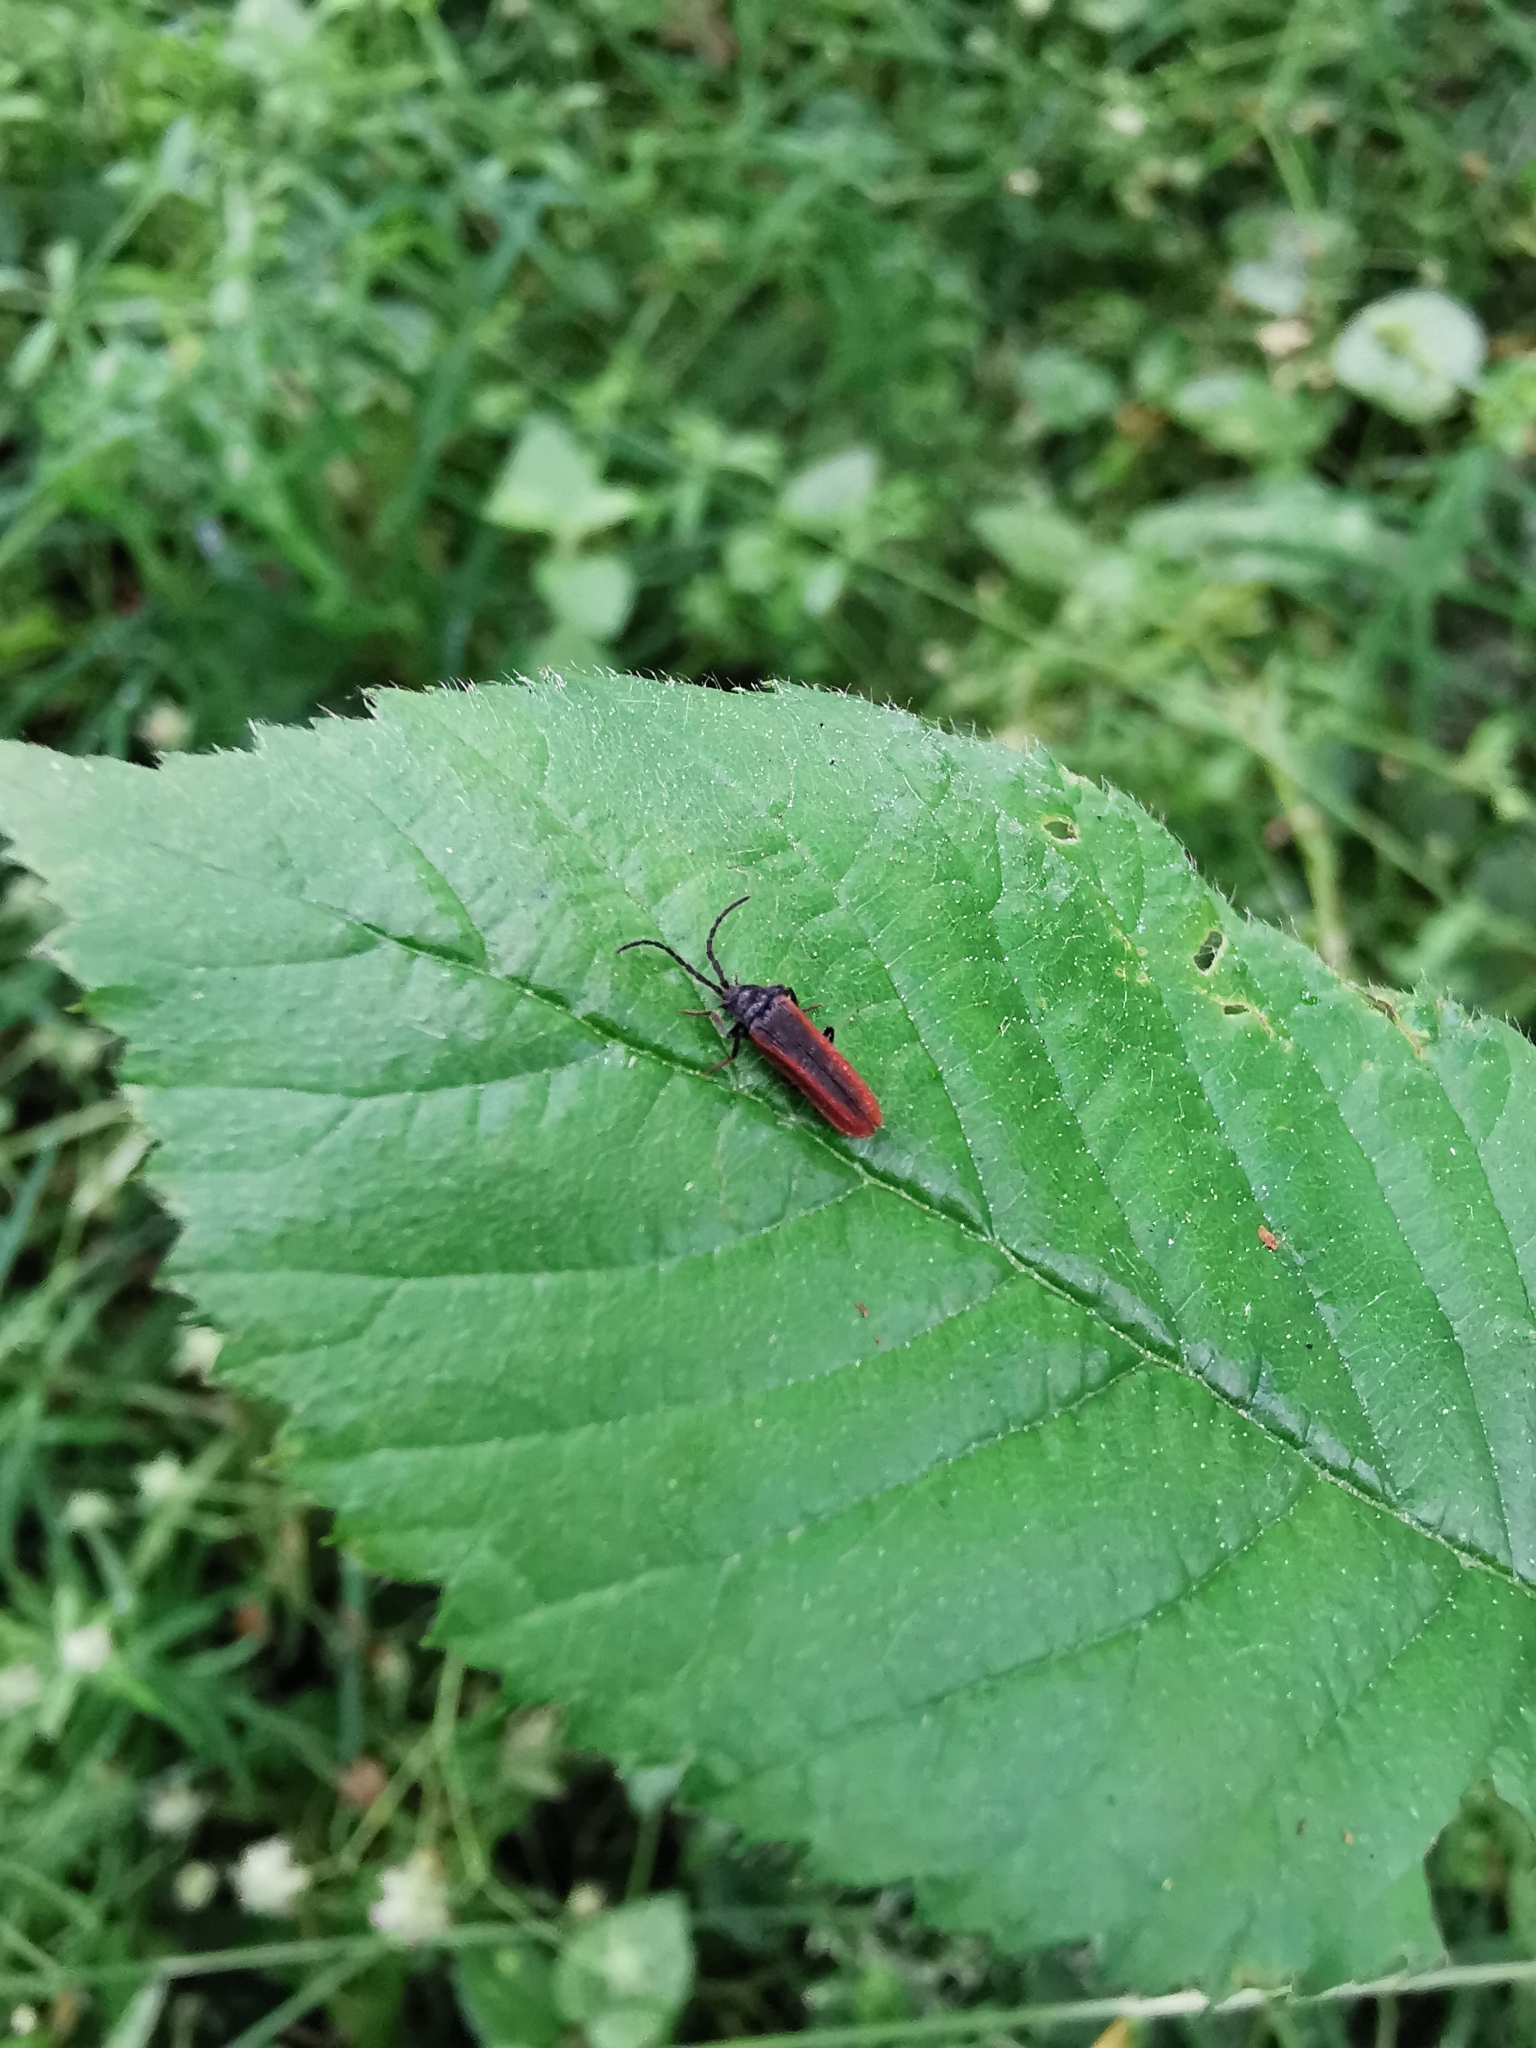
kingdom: Animalia
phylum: Arthropoda
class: Insecta
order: Coleoptera
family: Omalisidae
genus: Omalisus
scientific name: Omalisus fontisbellaquei
